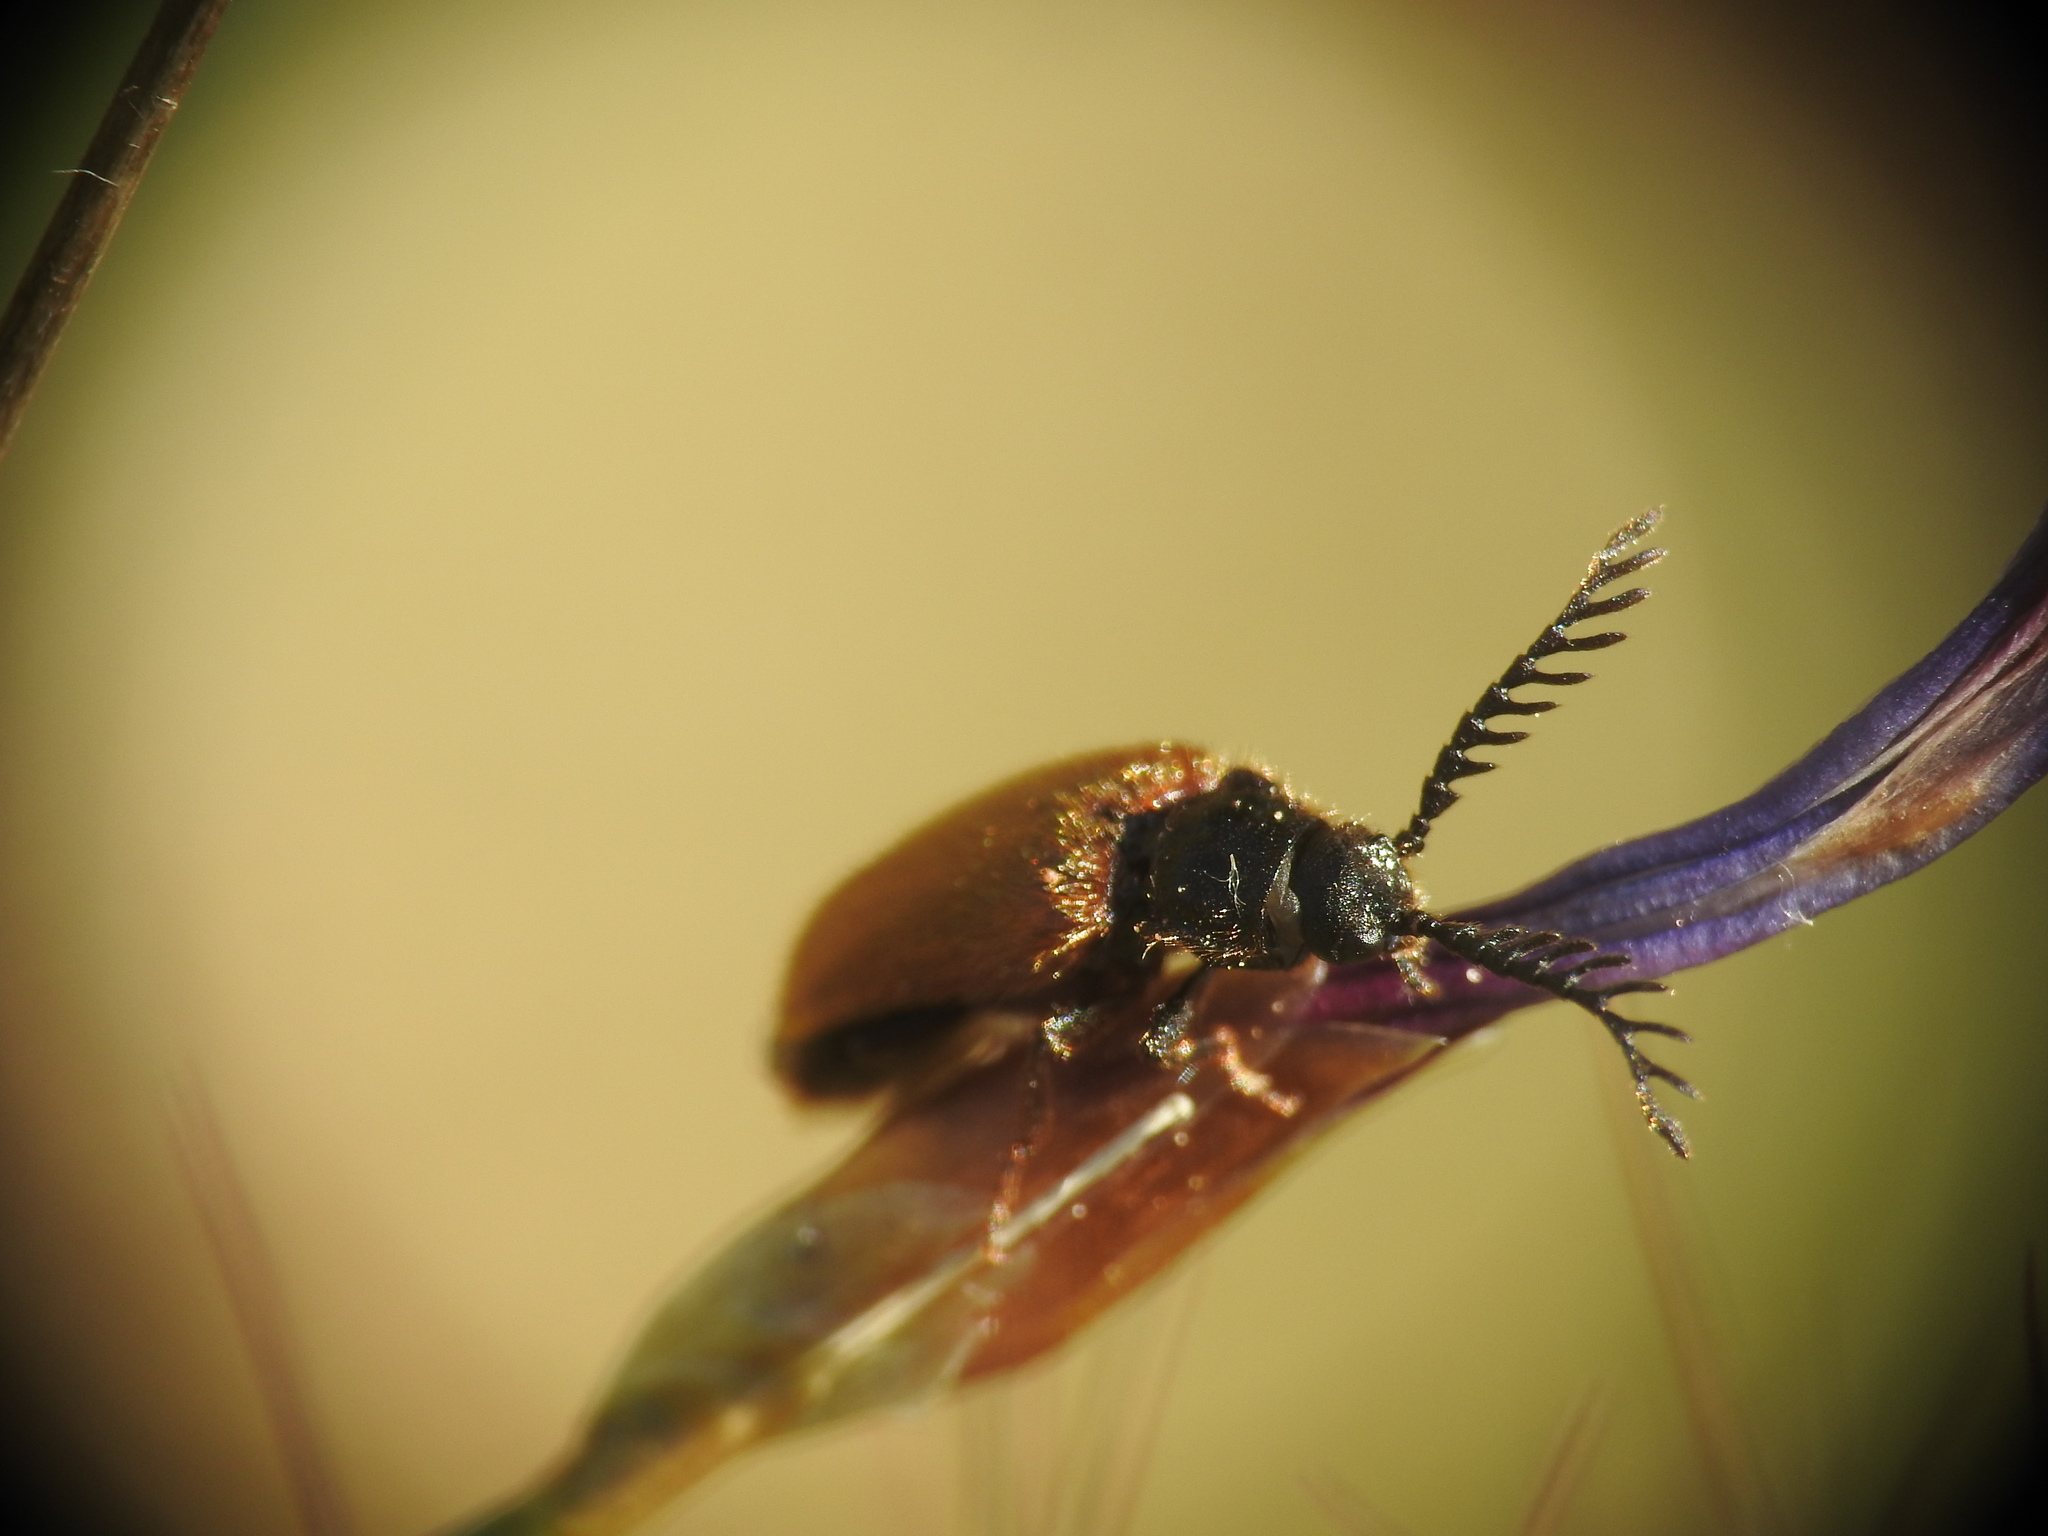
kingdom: Animalia
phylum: Arthropoda
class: Insecta
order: Coleoptera
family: Drilidae
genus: Drilus
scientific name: Drilus flavescens
